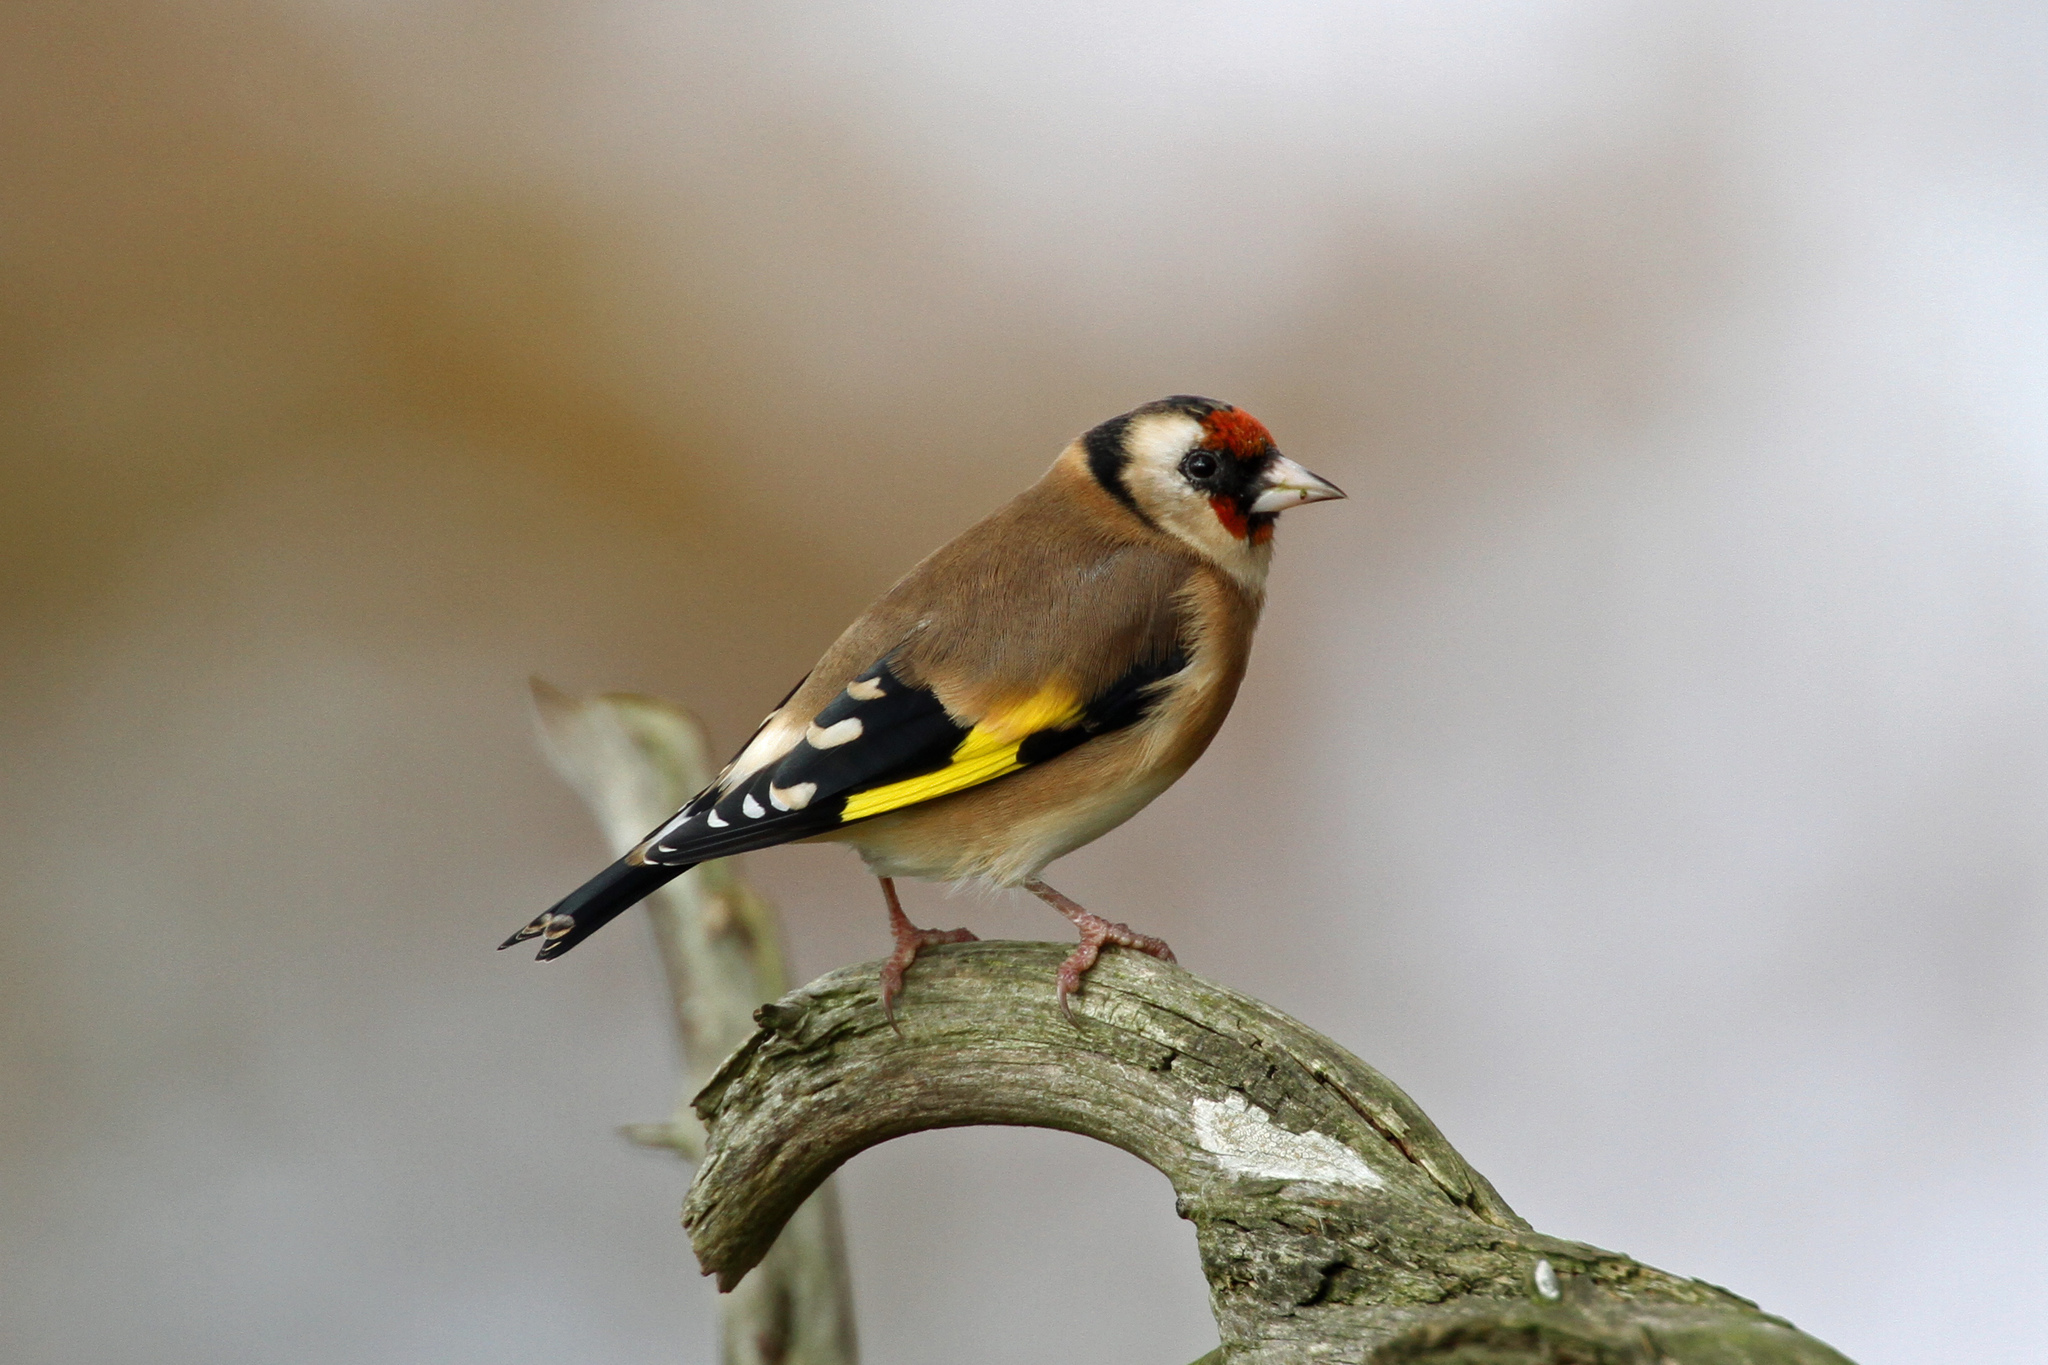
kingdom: Animalia
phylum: Chordata
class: Aves
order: Passeriformes
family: Fringillidae
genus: Carduelis
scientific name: Carduelis carduelis
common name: European goldfinch
